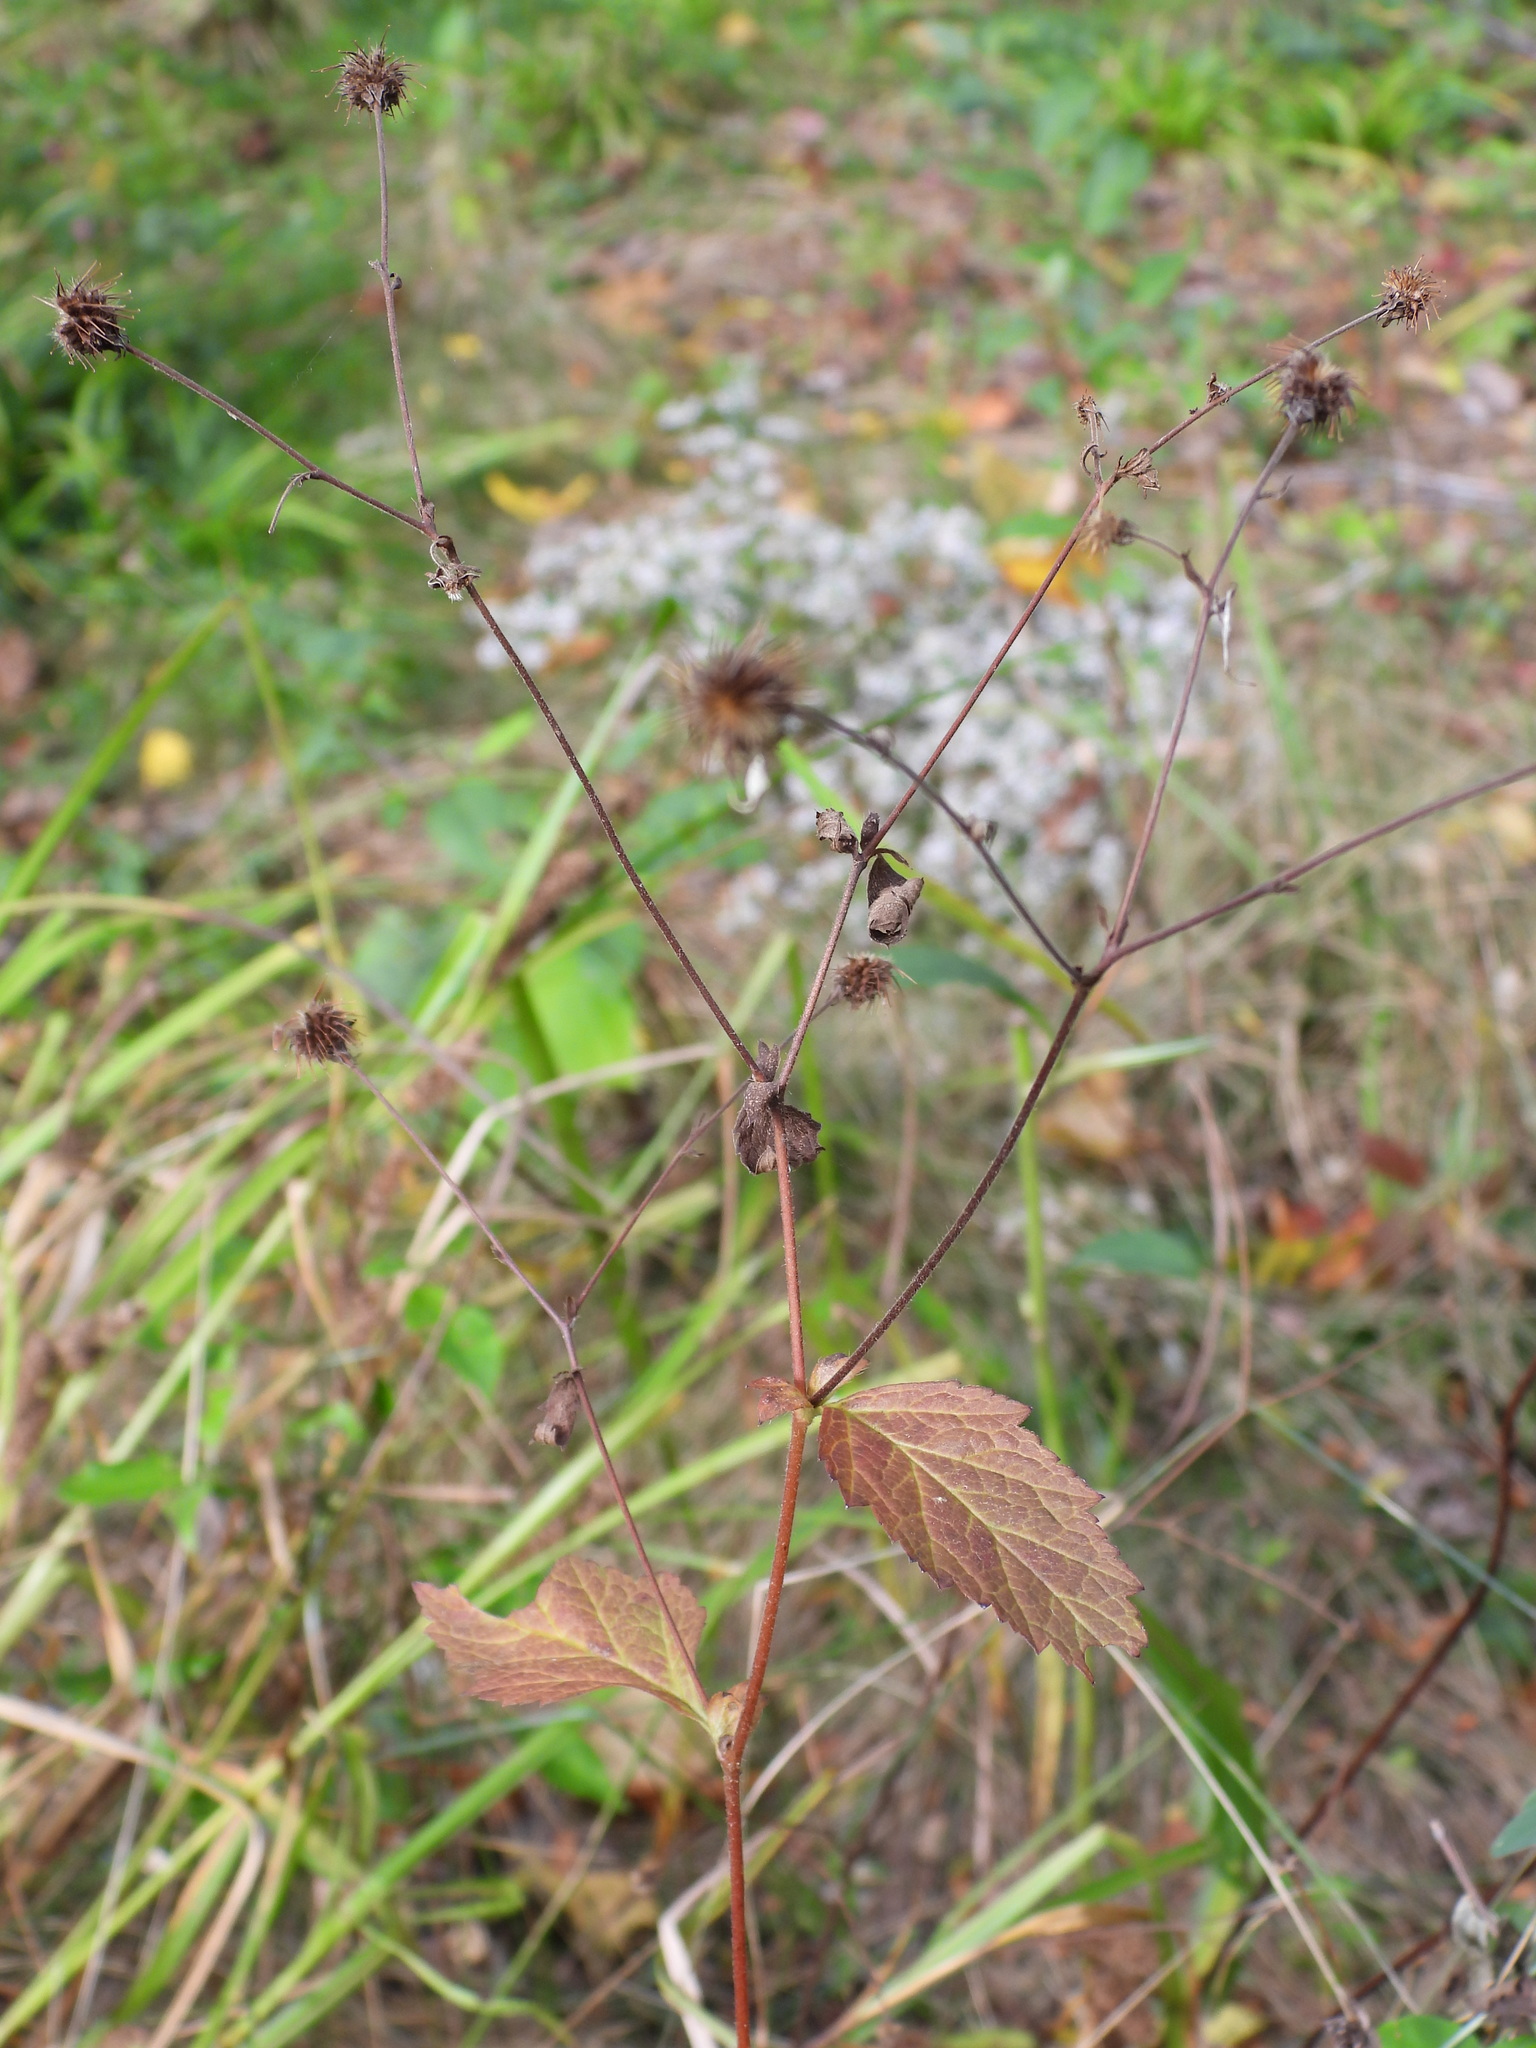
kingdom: Plantae
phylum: Tracheophyta
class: Magnoliopsida
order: Rosales
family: Rosaceae
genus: Geum
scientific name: Geum canadense
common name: White avens
